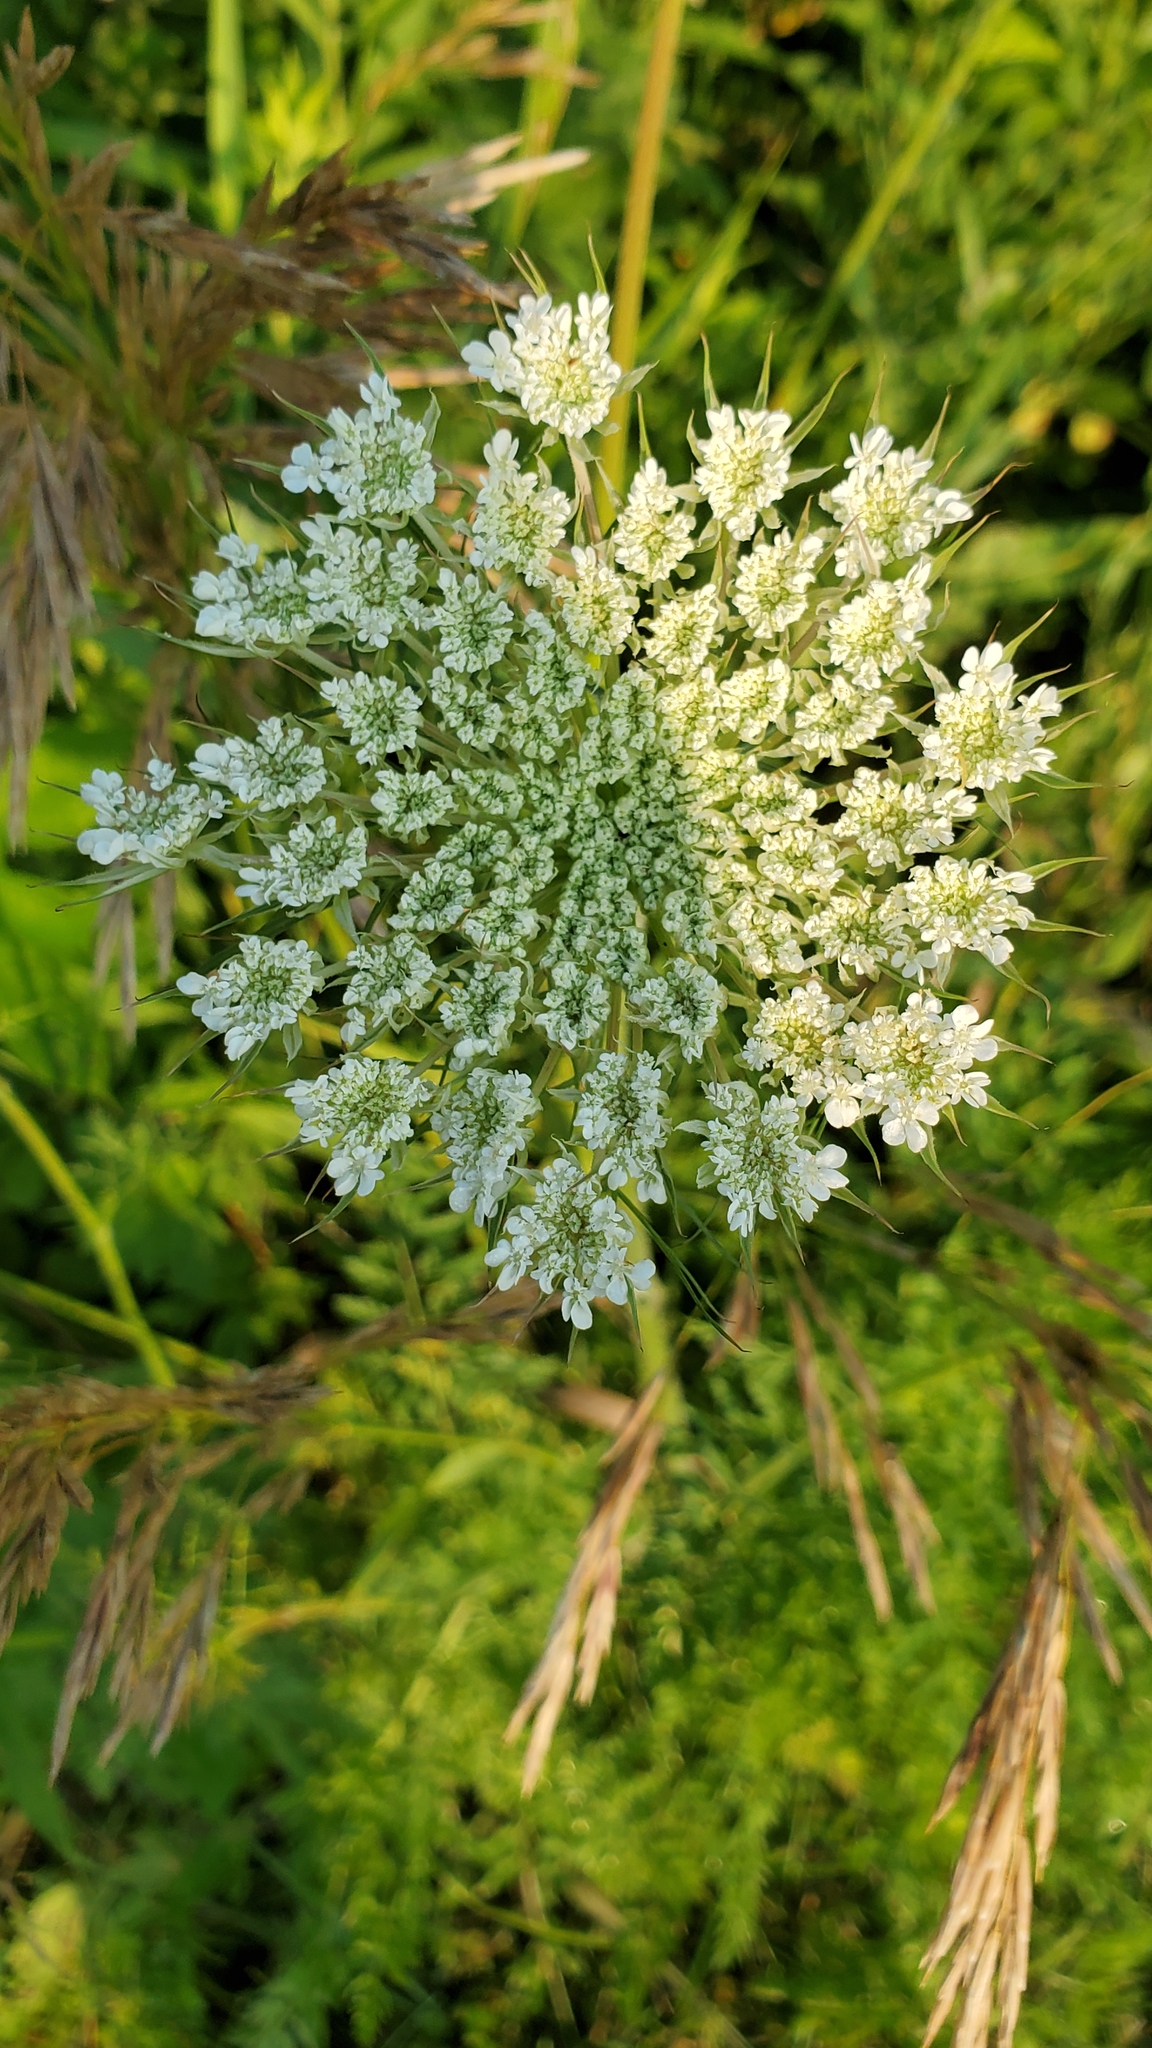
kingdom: Plantae
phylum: Tracheophyta
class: Magnoliopsida
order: Apiales
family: Apiaceae
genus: Daucus
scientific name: Daucus carota
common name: Wild carrot
